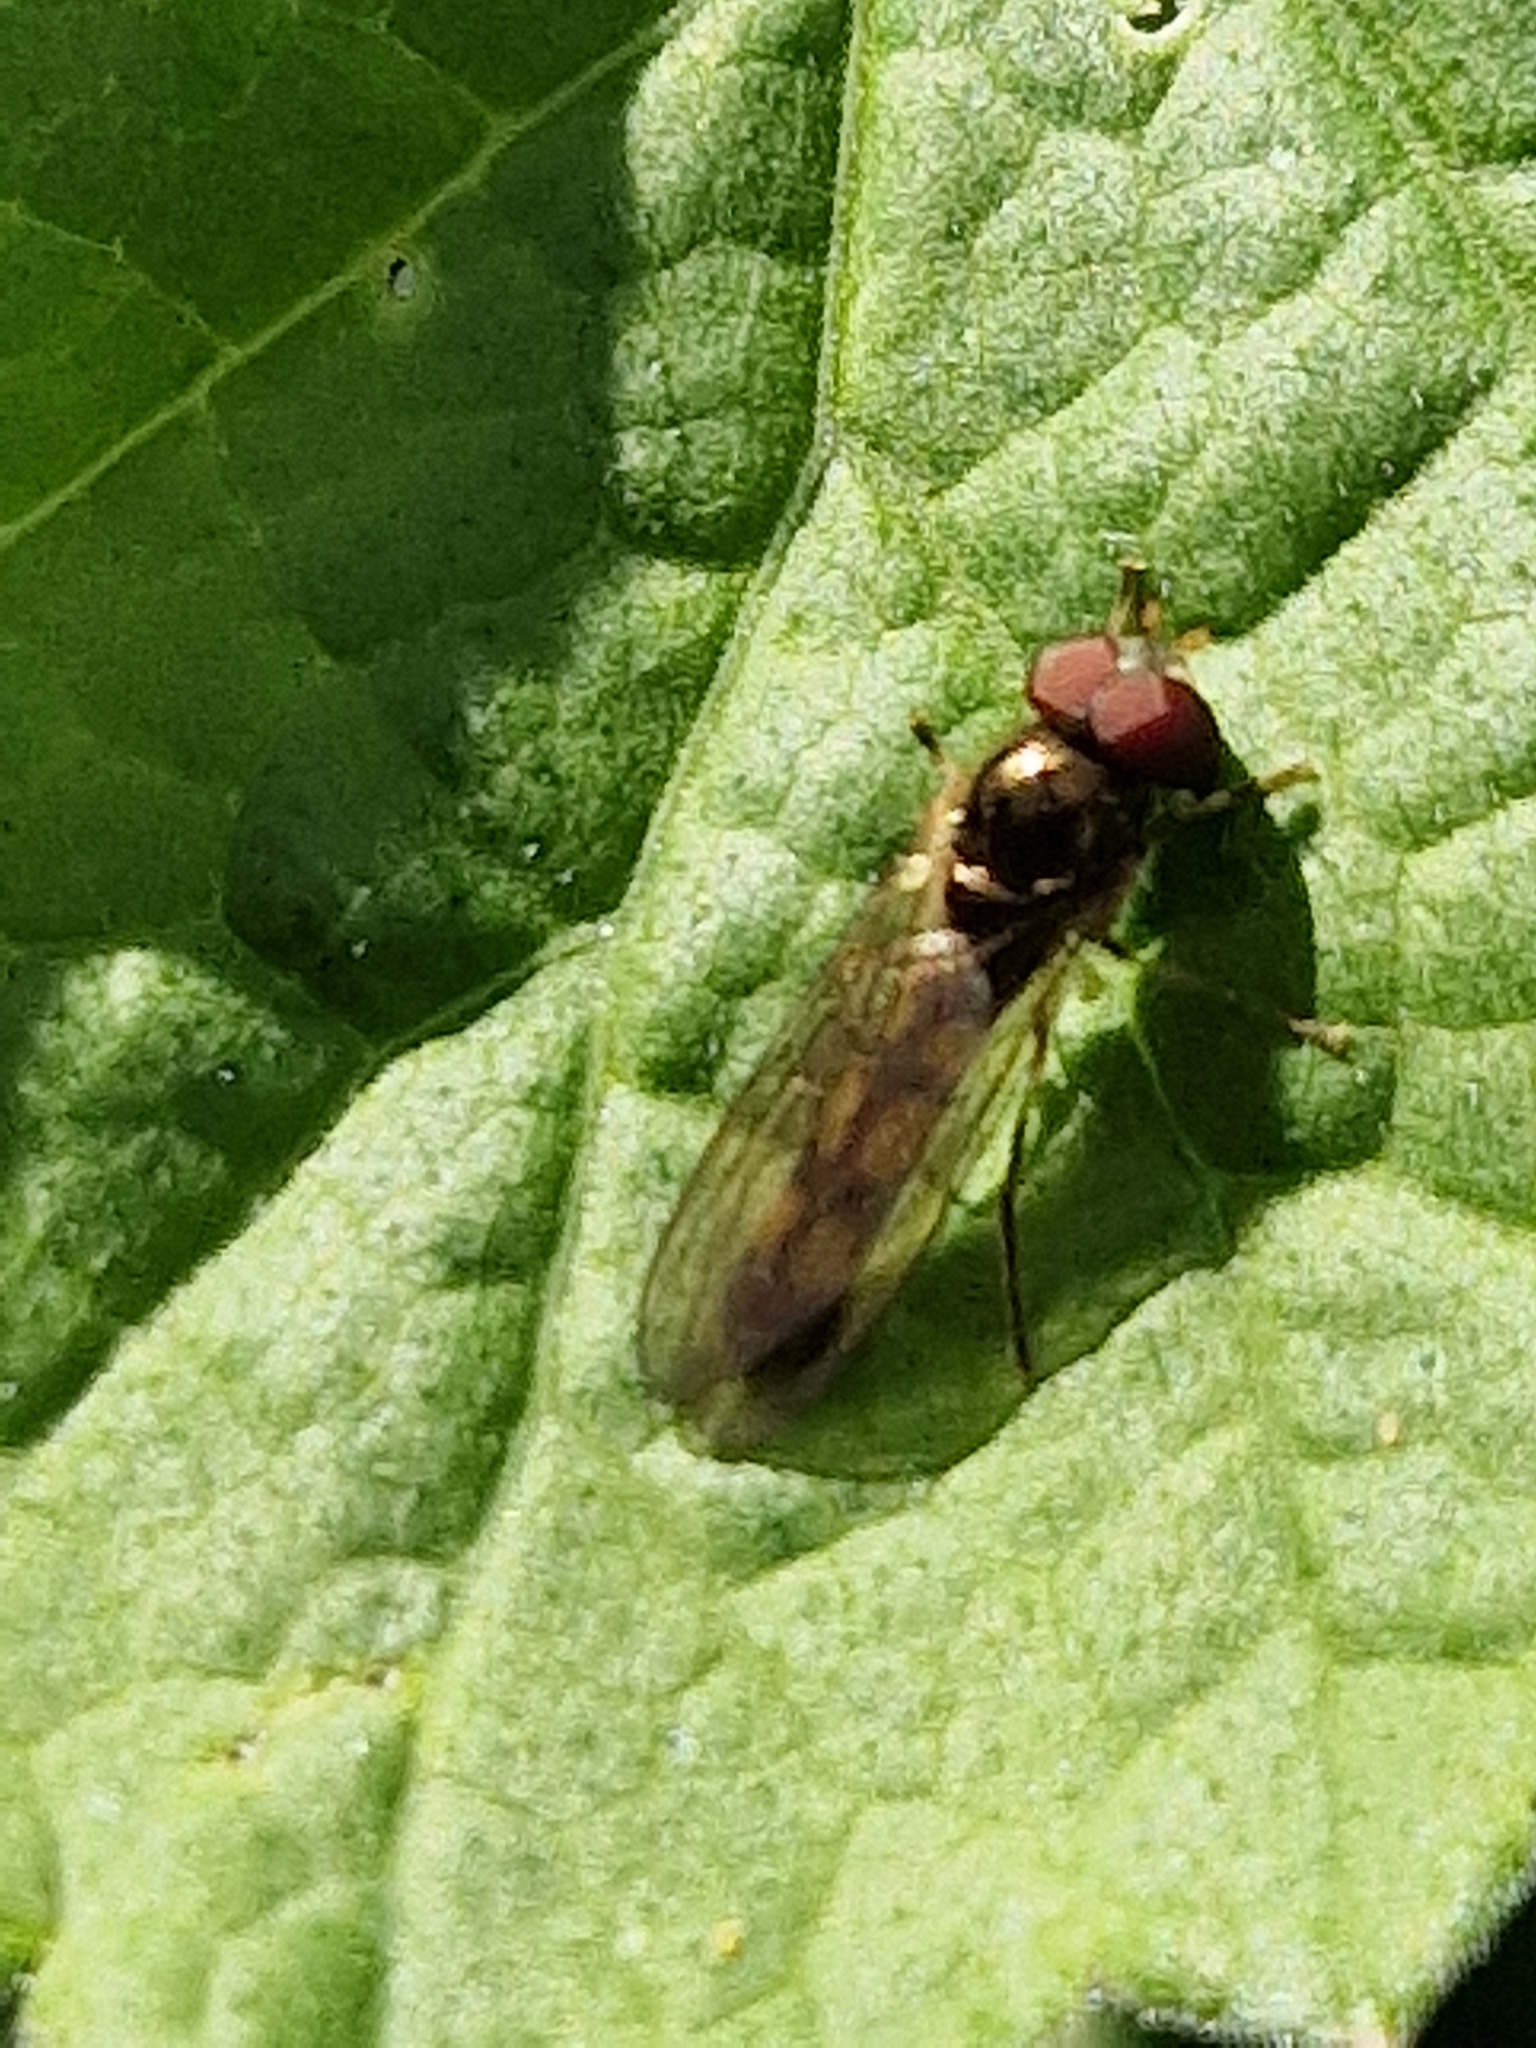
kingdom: Animalia
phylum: Arthropoda
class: Insecta
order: Diptera
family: Syrphidae
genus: Melanostoma
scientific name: Melanostoma scalare
